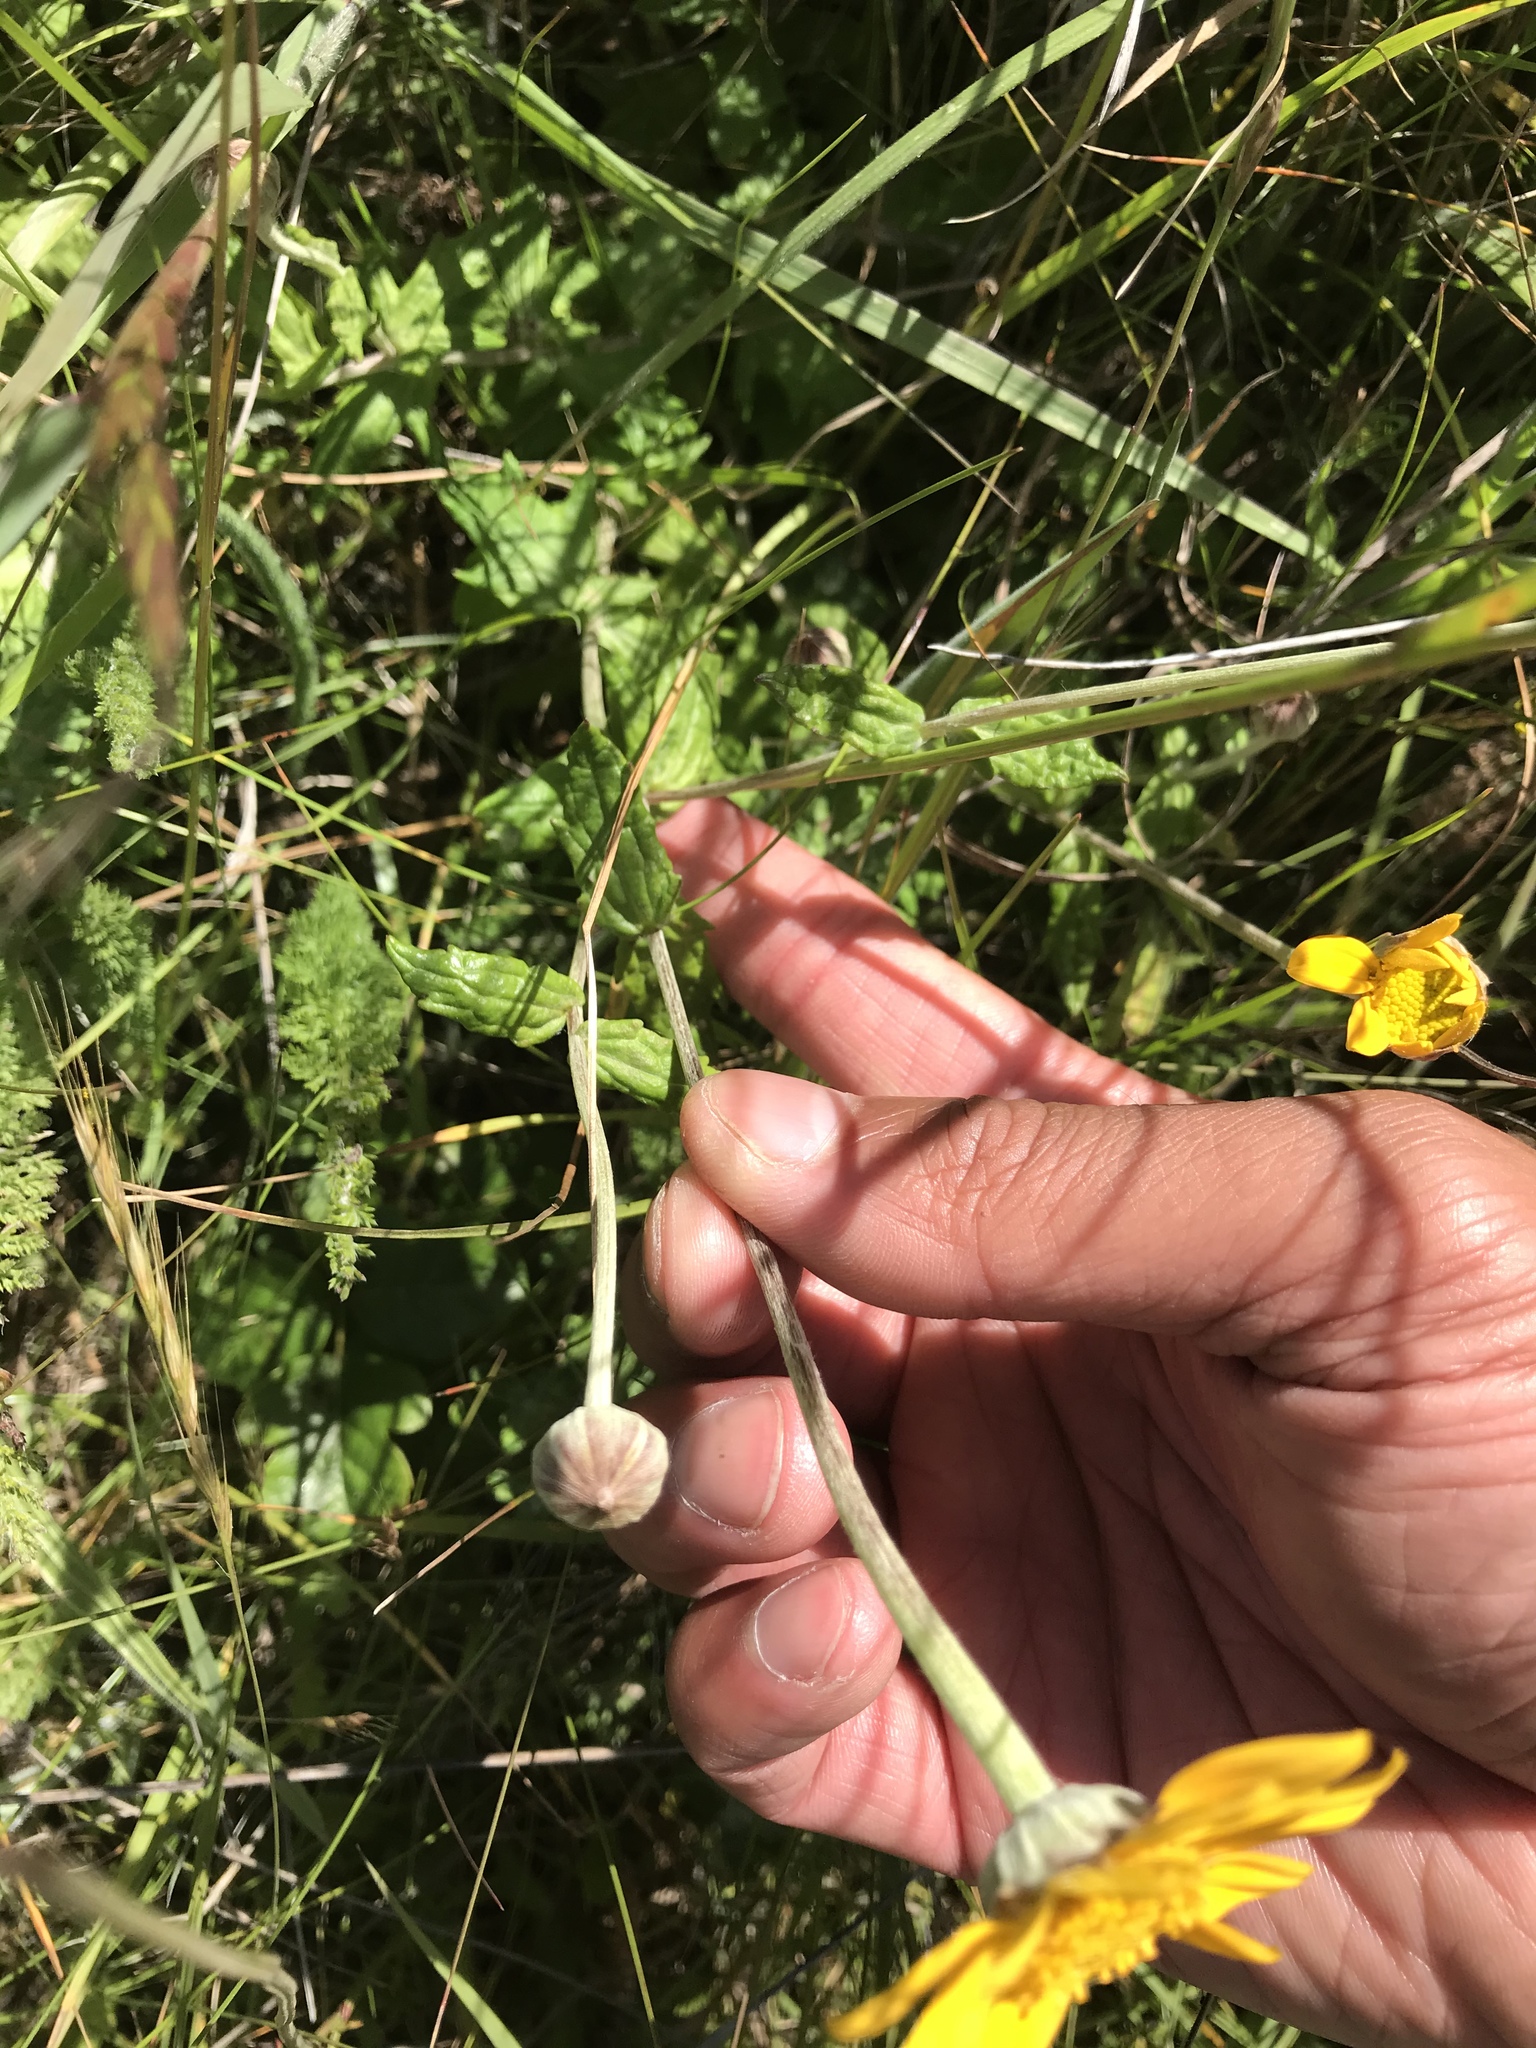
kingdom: Plantae
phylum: Tracheophyta
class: Magnoliopsida
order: Asterales
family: Asteraceae
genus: Eriophyllum
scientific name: Eriophyllum lanatum
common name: Common woolly-sunflower
